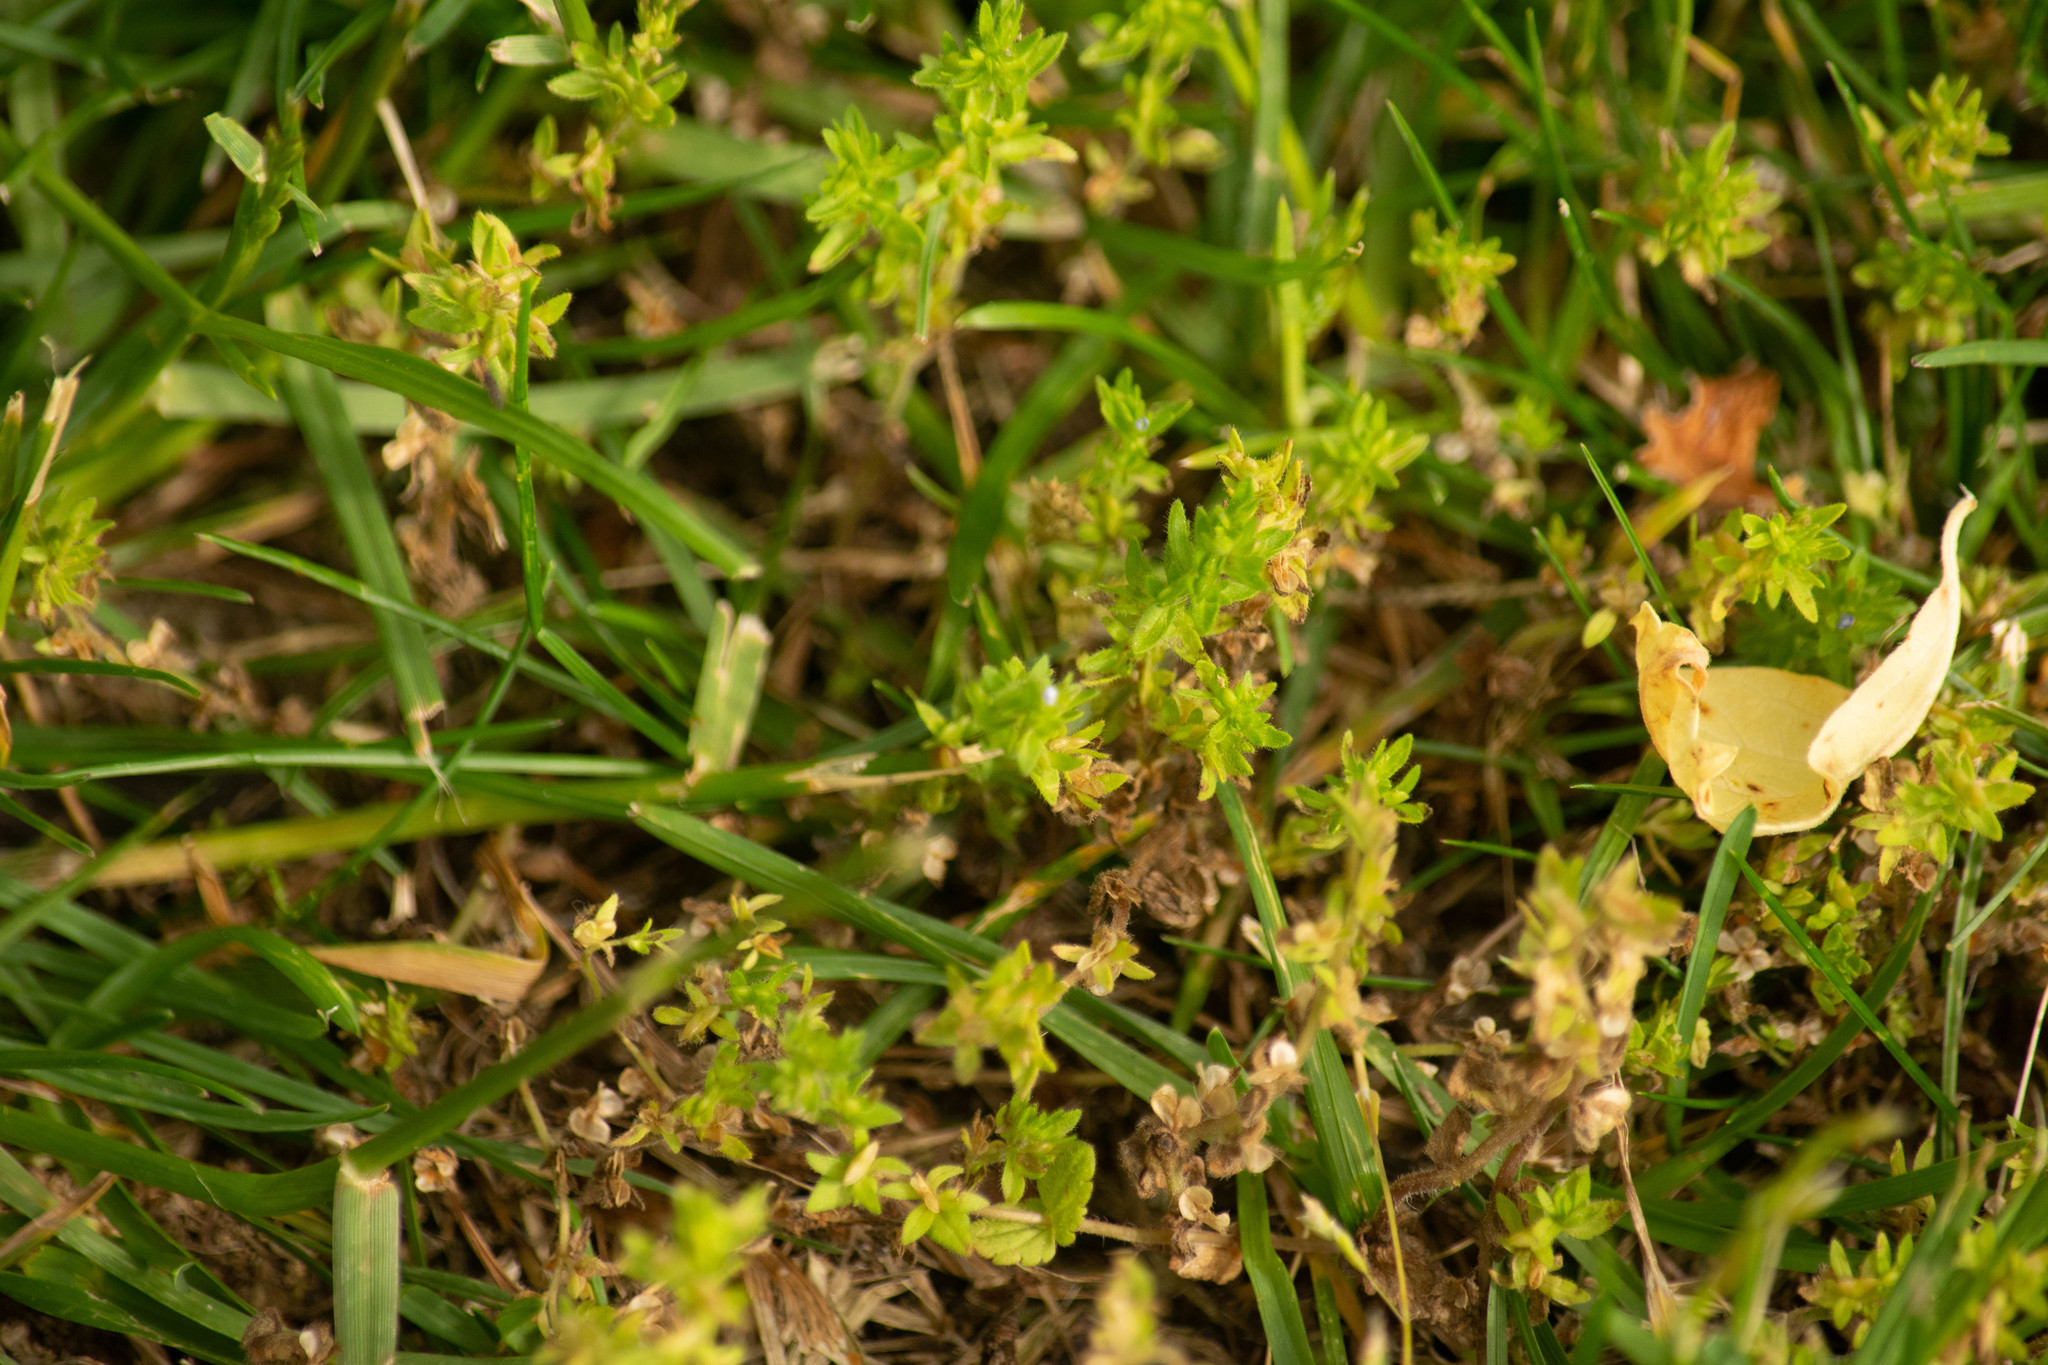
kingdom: Plantae
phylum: Tracheophyta
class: Magnoliopsida
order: Lamiales
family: Plantaginaceae
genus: Veronica
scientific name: Veronica arvensis
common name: Corn speedwell
